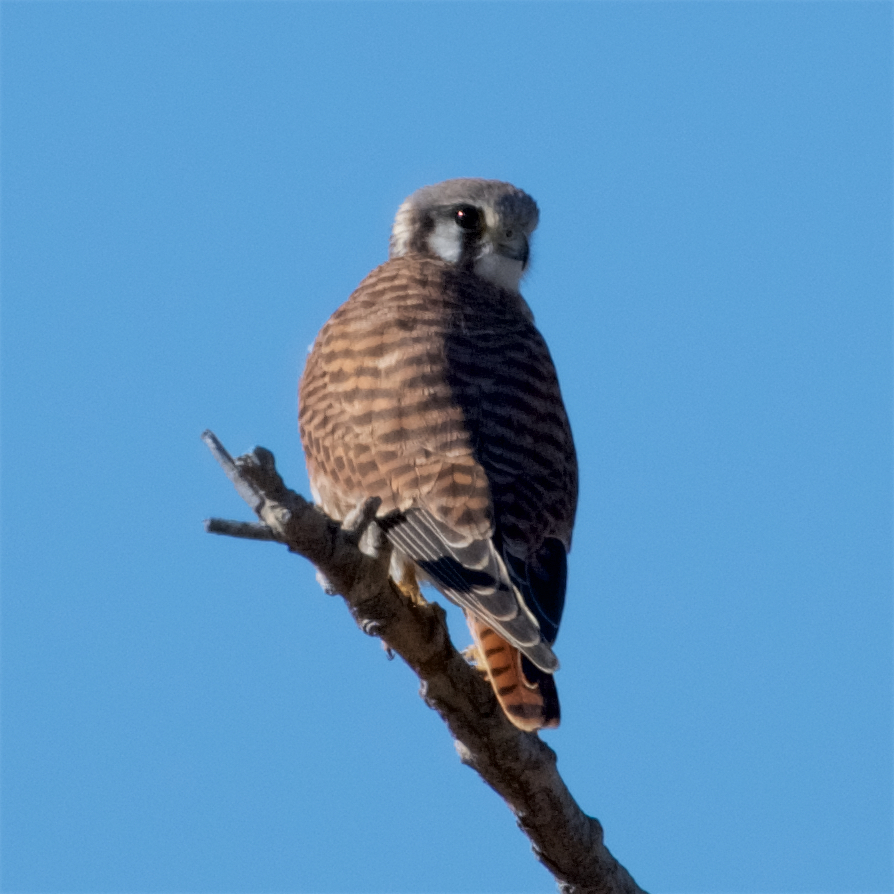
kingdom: Animalia
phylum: Chordata
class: Aves
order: Falconiformes
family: Falconidae
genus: Falco
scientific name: Falco sparverius
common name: American kestrel
